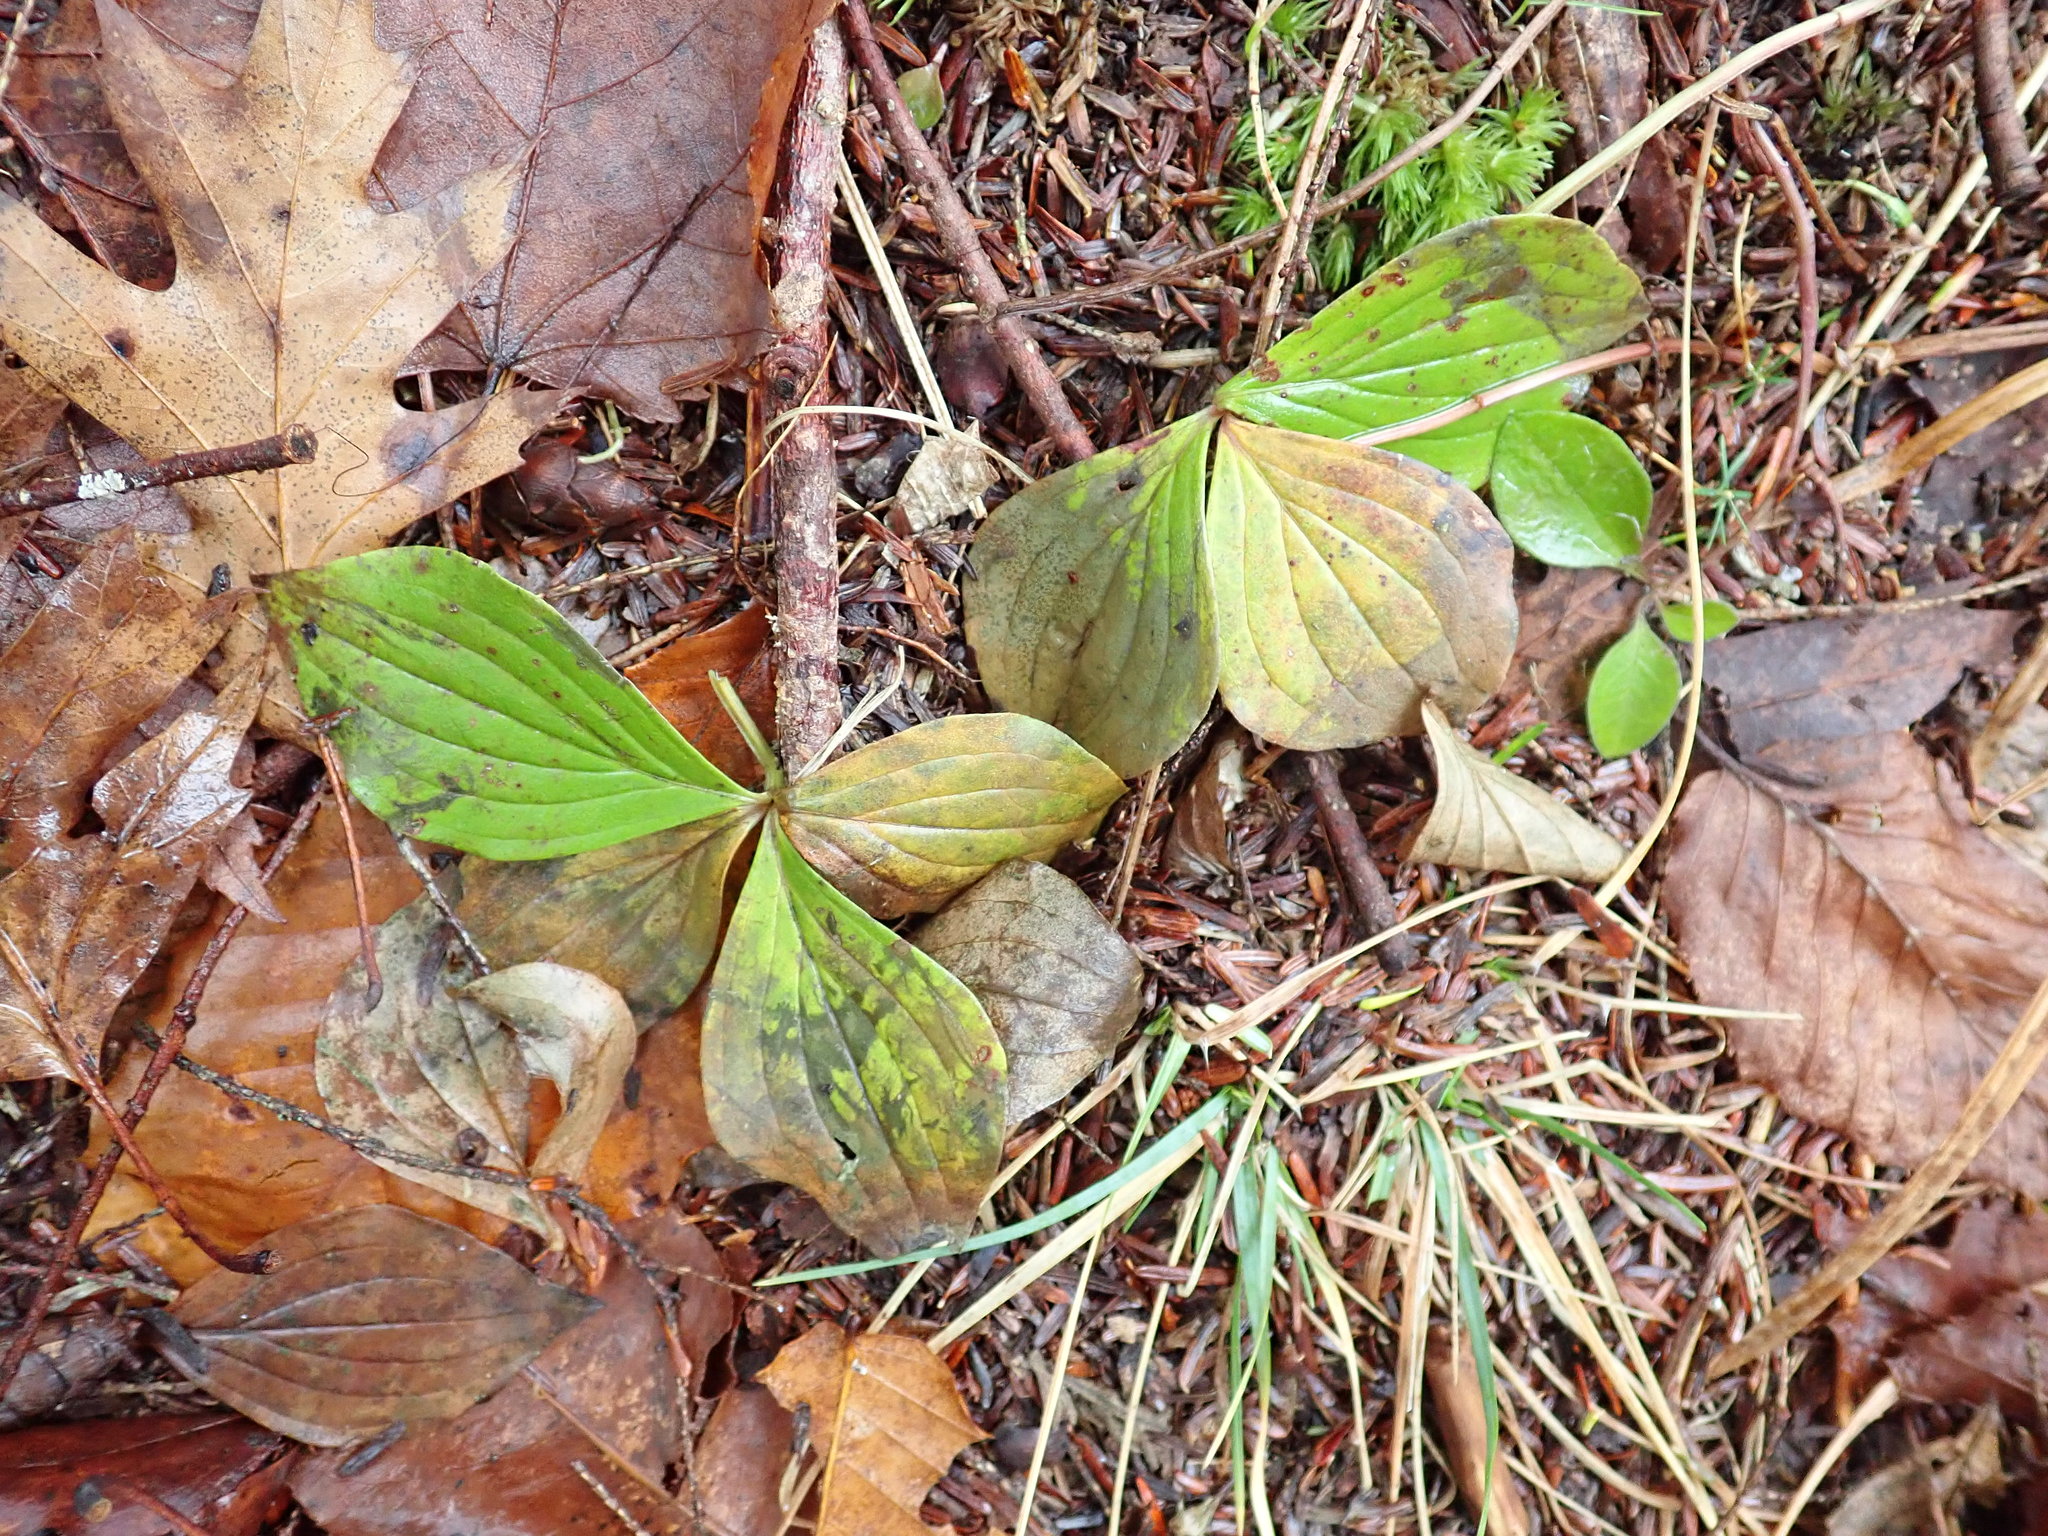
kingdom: Plantae
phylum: Tracheophyta
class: Magnoliopsida
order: Cornales
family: Cornaceae
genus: Cornus
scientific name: Cornus canadensis
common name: Creeping dogwood
